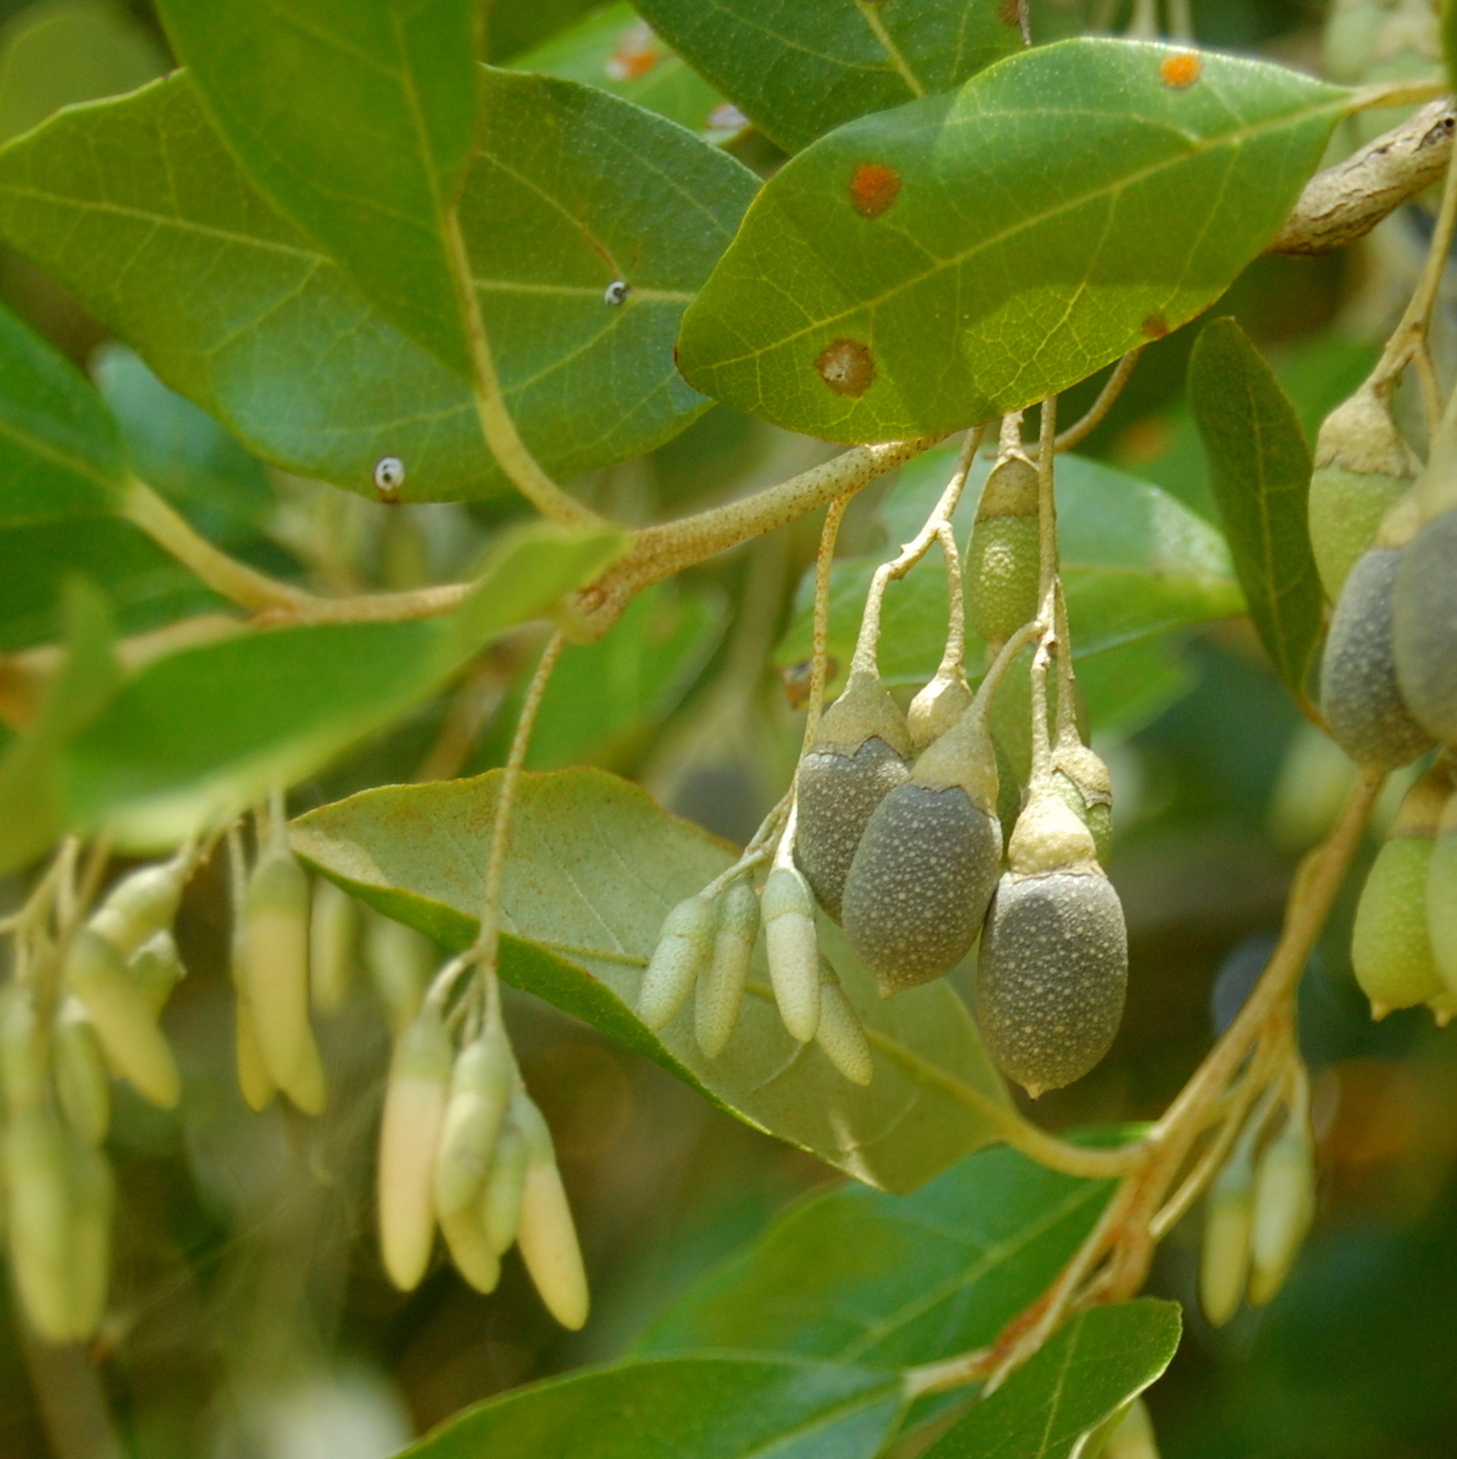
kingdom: Plantae
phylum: Tracheophyta
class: Magnoliopsida
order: Ericales
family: Styracaceae
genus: Styrax
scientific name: Styrax leprosus
